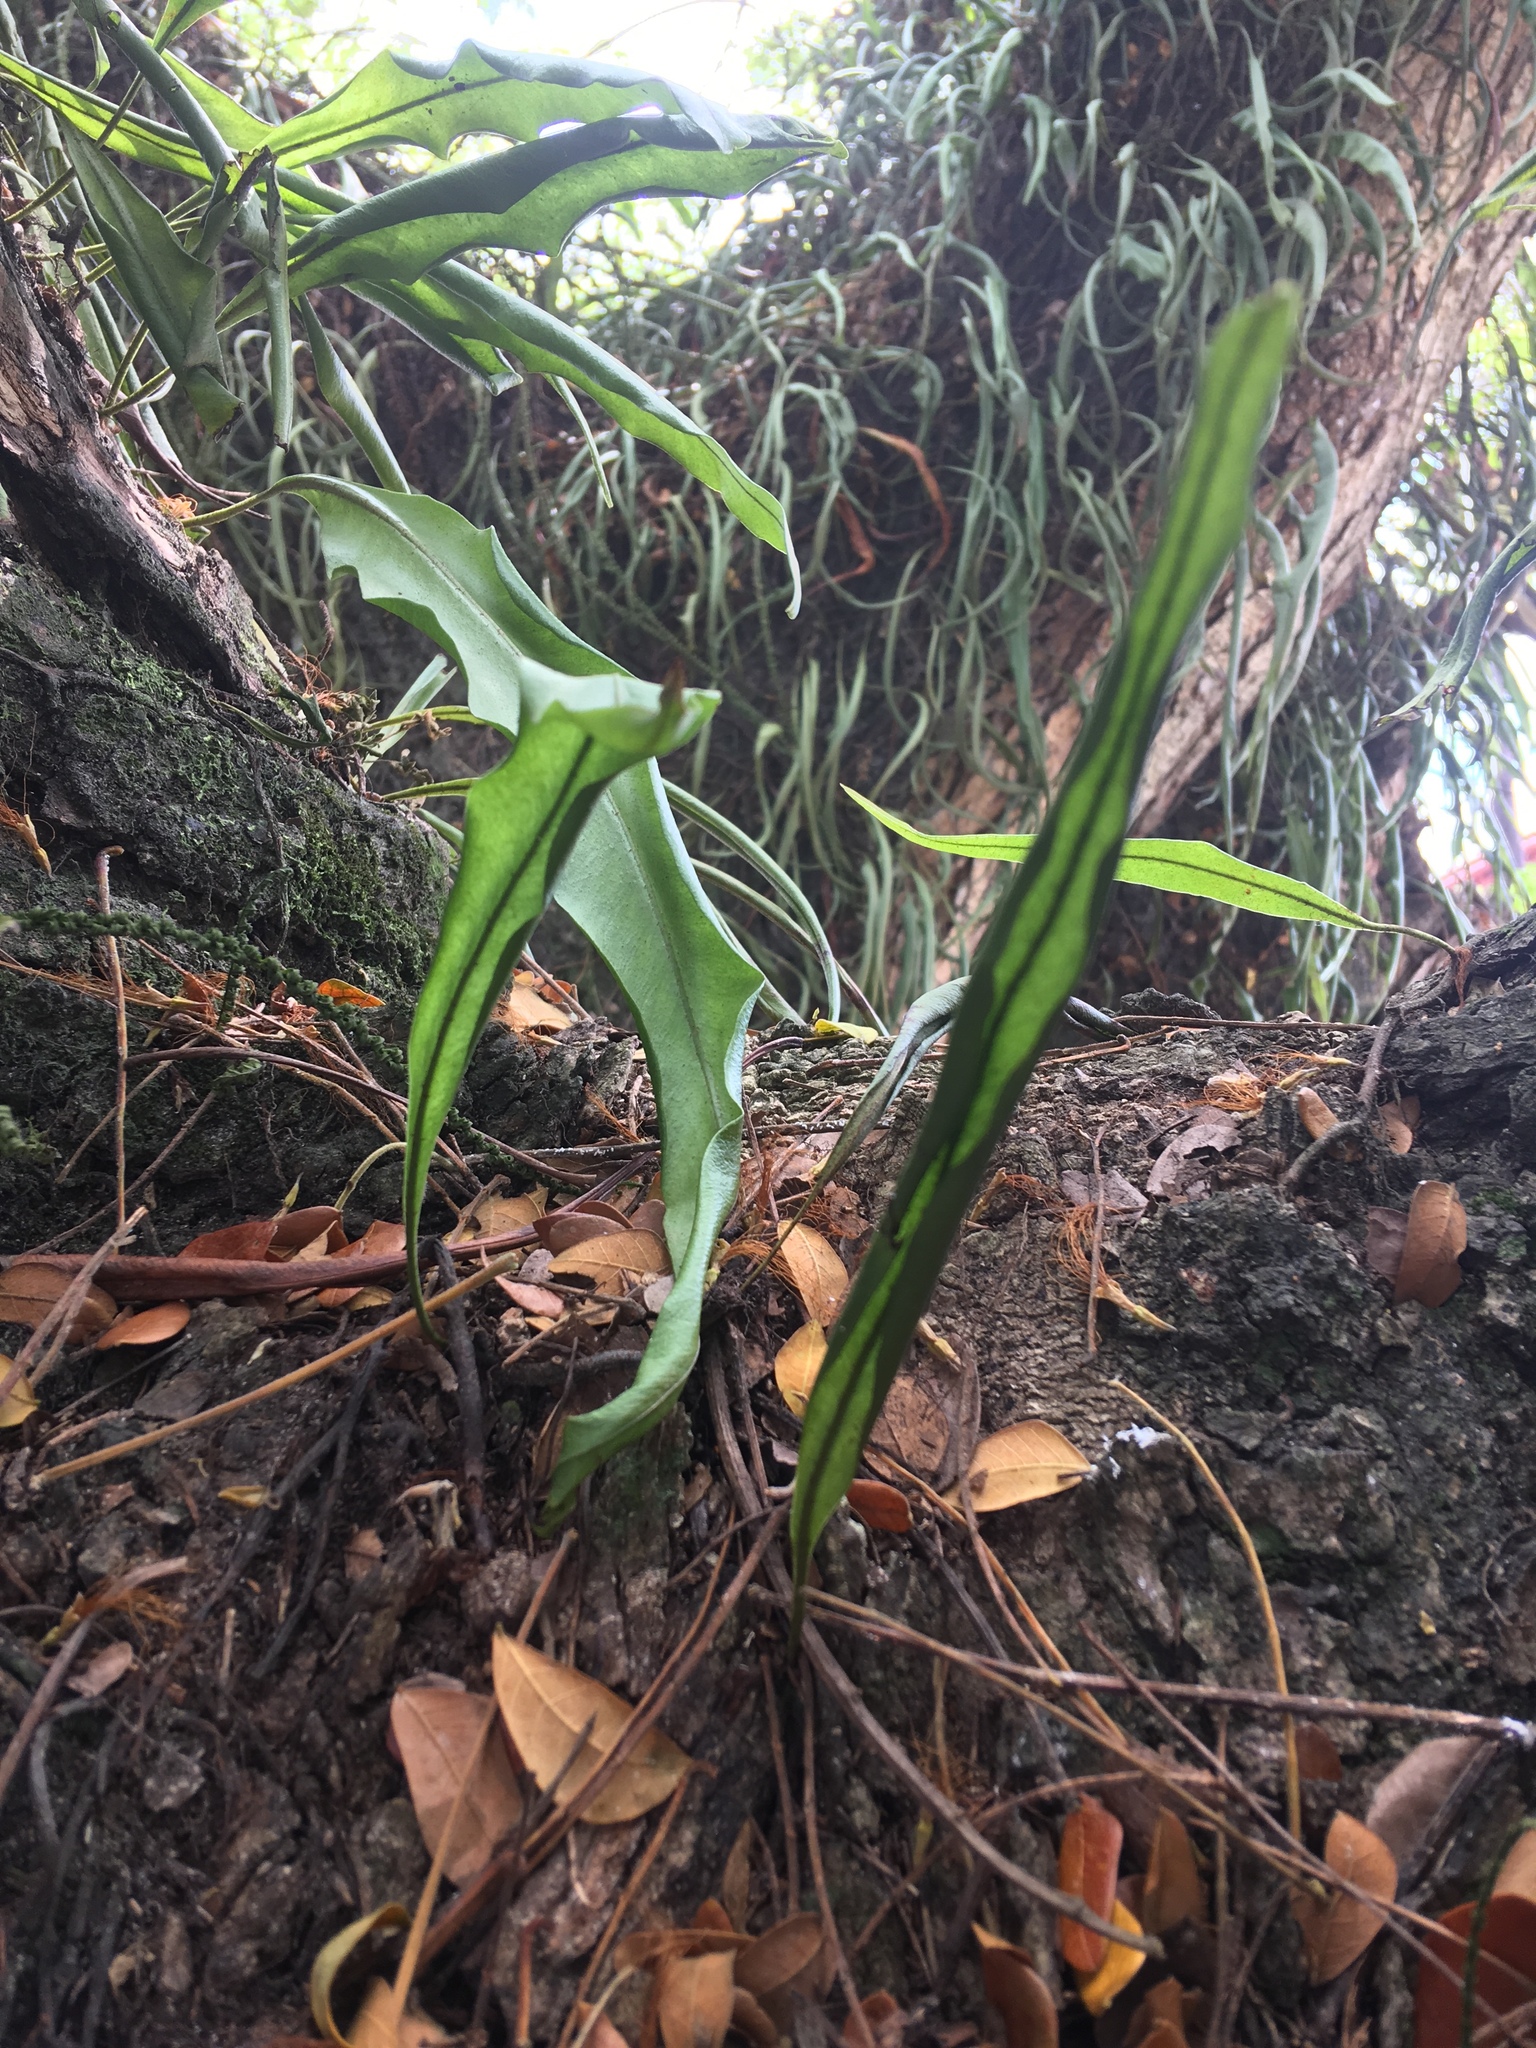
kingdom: Plantae
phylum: Tracheophyta
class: Polypodiopsida
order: Polypodiales
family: Polypodiaceae
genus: Microgramma
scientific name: Microgramma percussa
